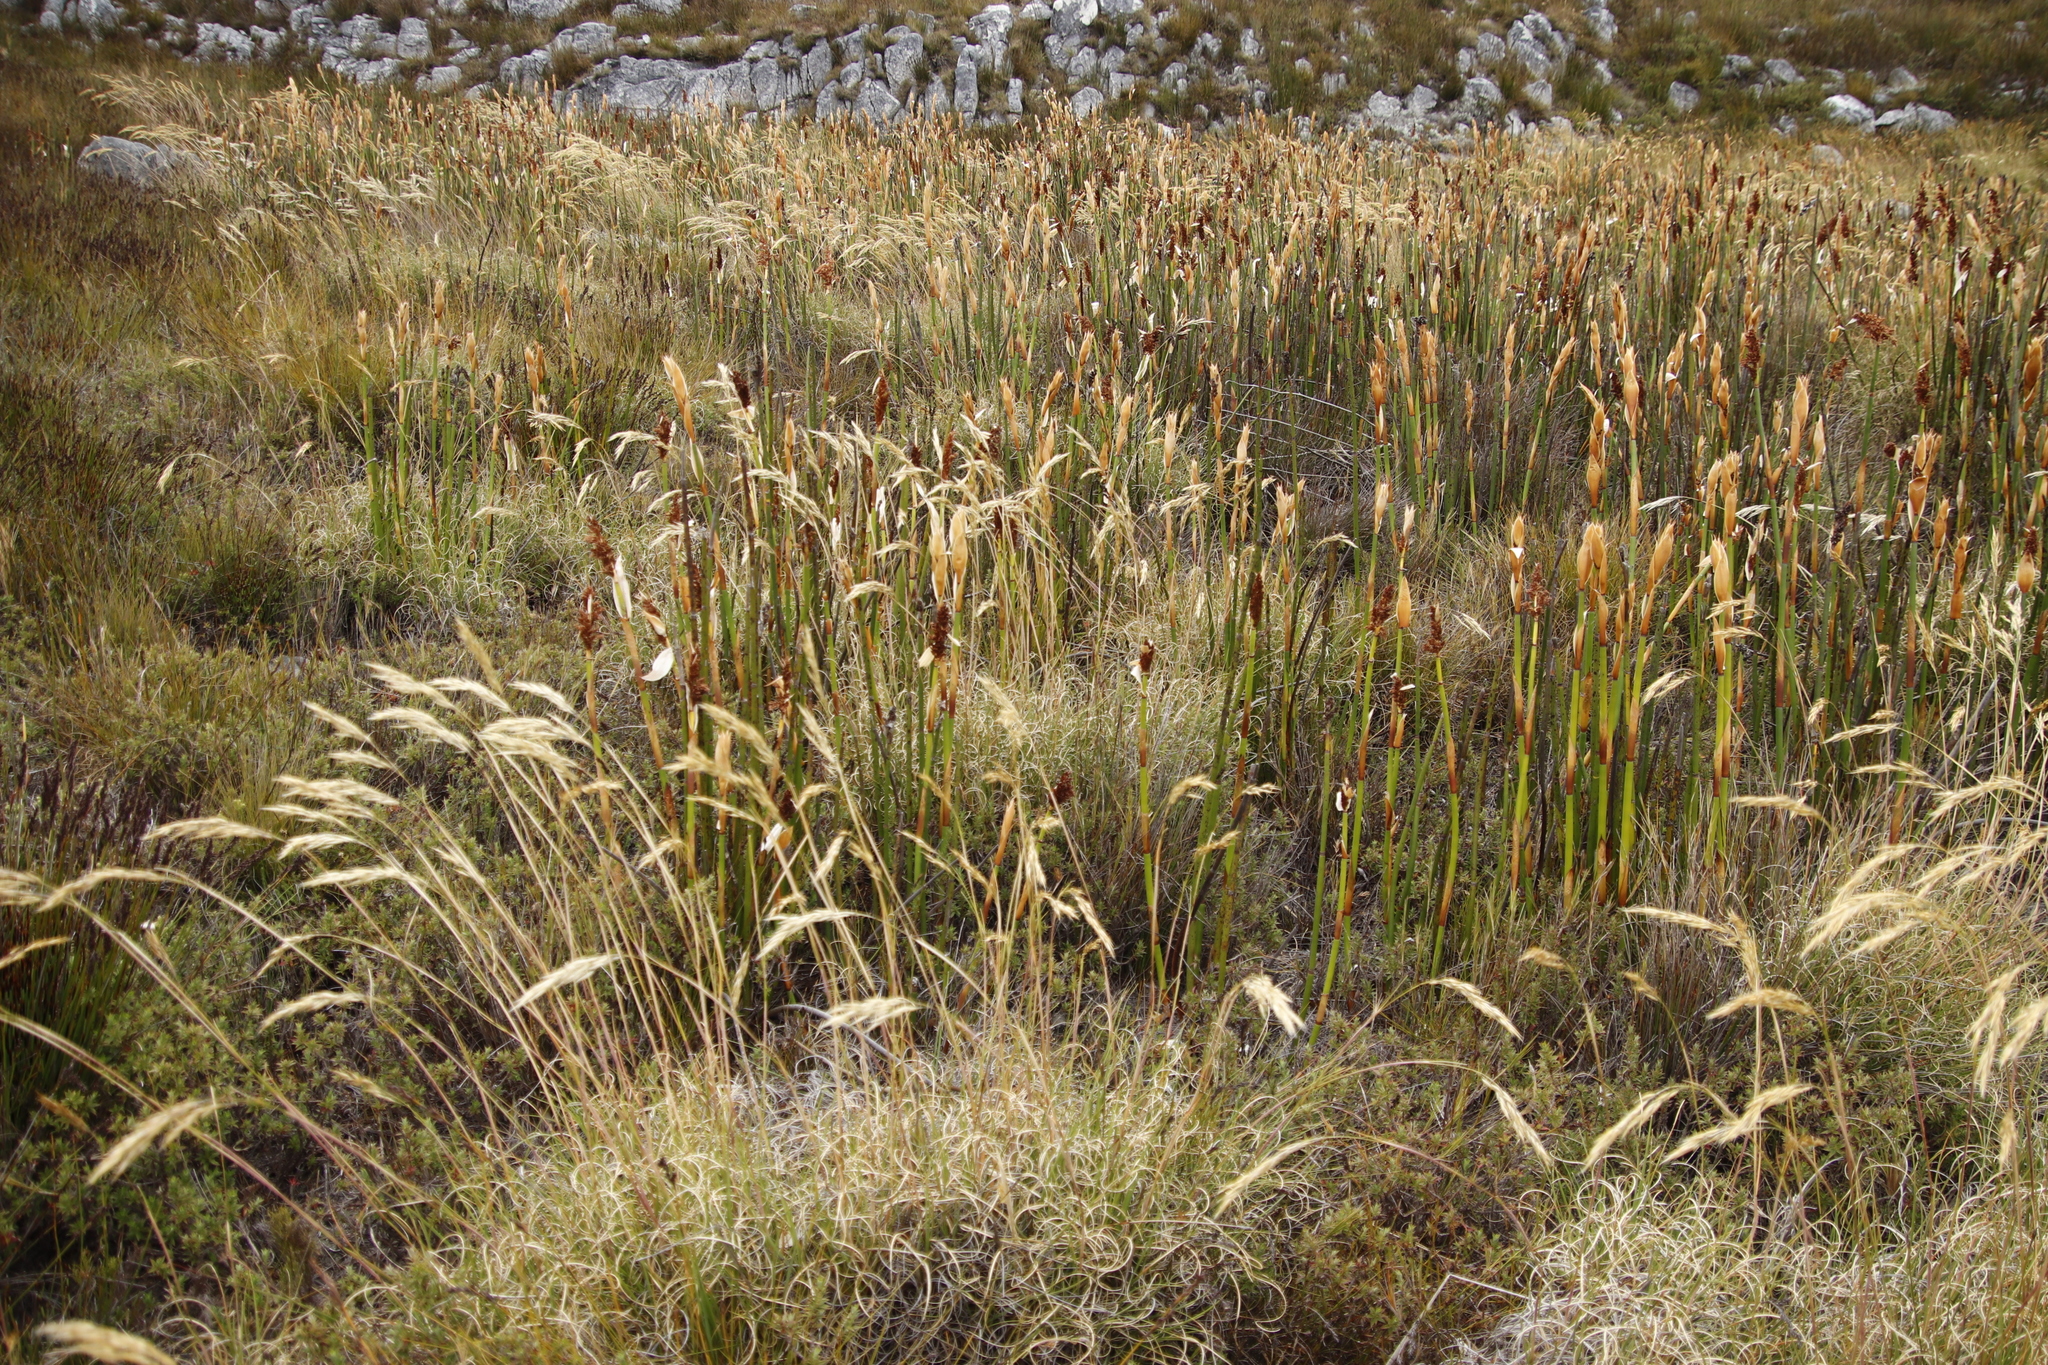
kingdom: Plantae
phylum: Tracheophyta
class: Liliopsida
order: Poales
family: Restionaceae
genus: Elegia
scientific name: Elegia mucronata
